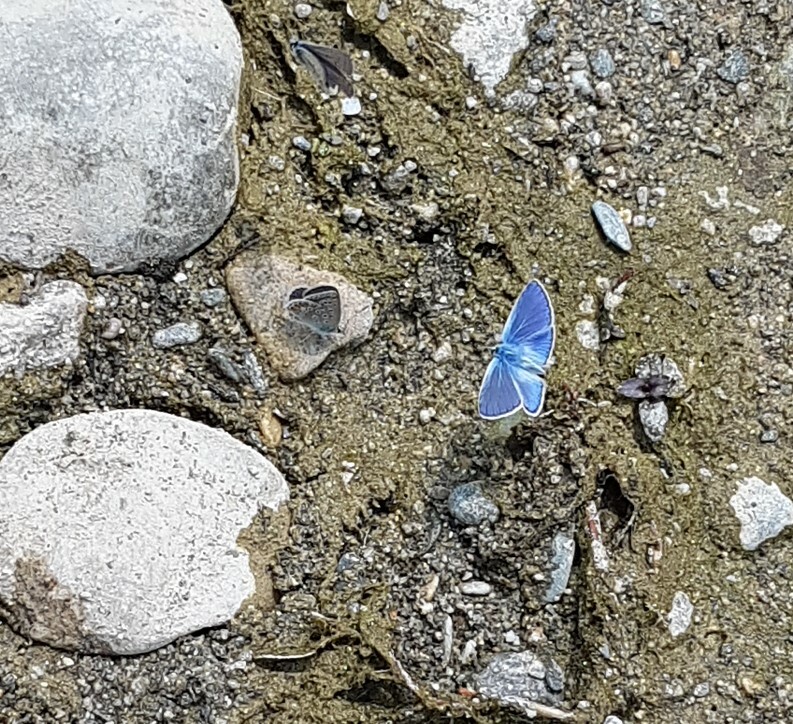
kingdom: Animalia
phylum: Arthropoda
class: Insecta
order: Lepidoptera
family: Lycaenidae
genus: Polyommatus
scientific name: Polyommatus icarus
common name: Common blue
